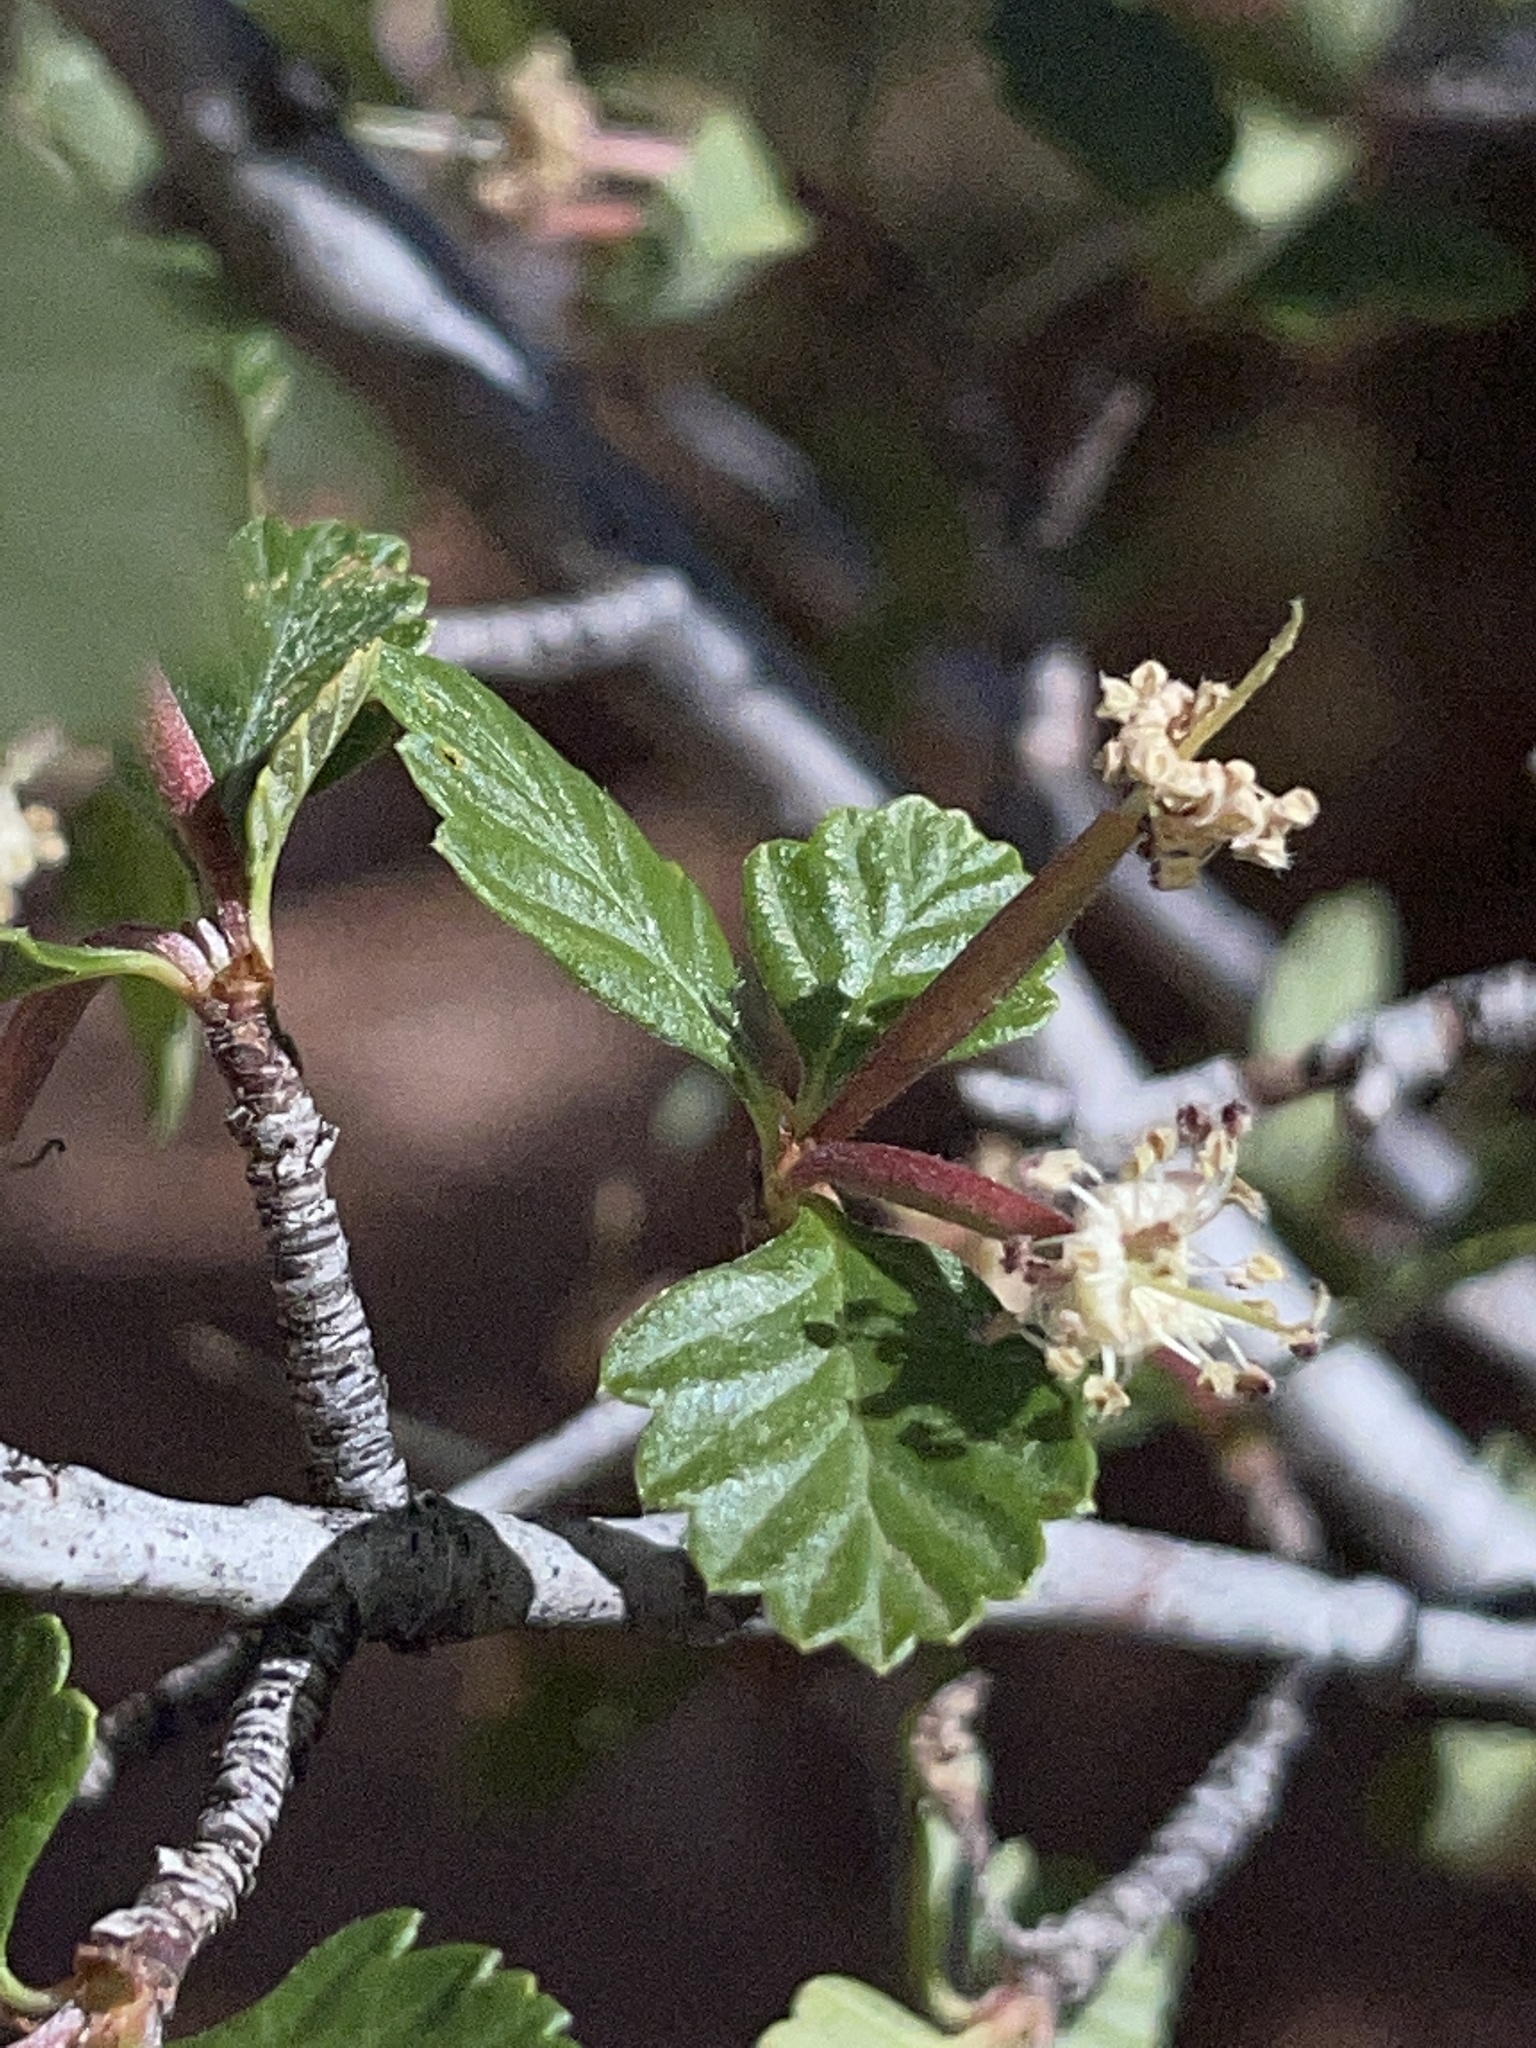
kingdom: Plantae
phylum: Tracheophyta
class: Magnoliopsida
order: Rosales
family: Rosaceae
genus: Cercocarpus
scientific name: Cercocarpus montanus
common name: Alder-leaf cercocarpus
